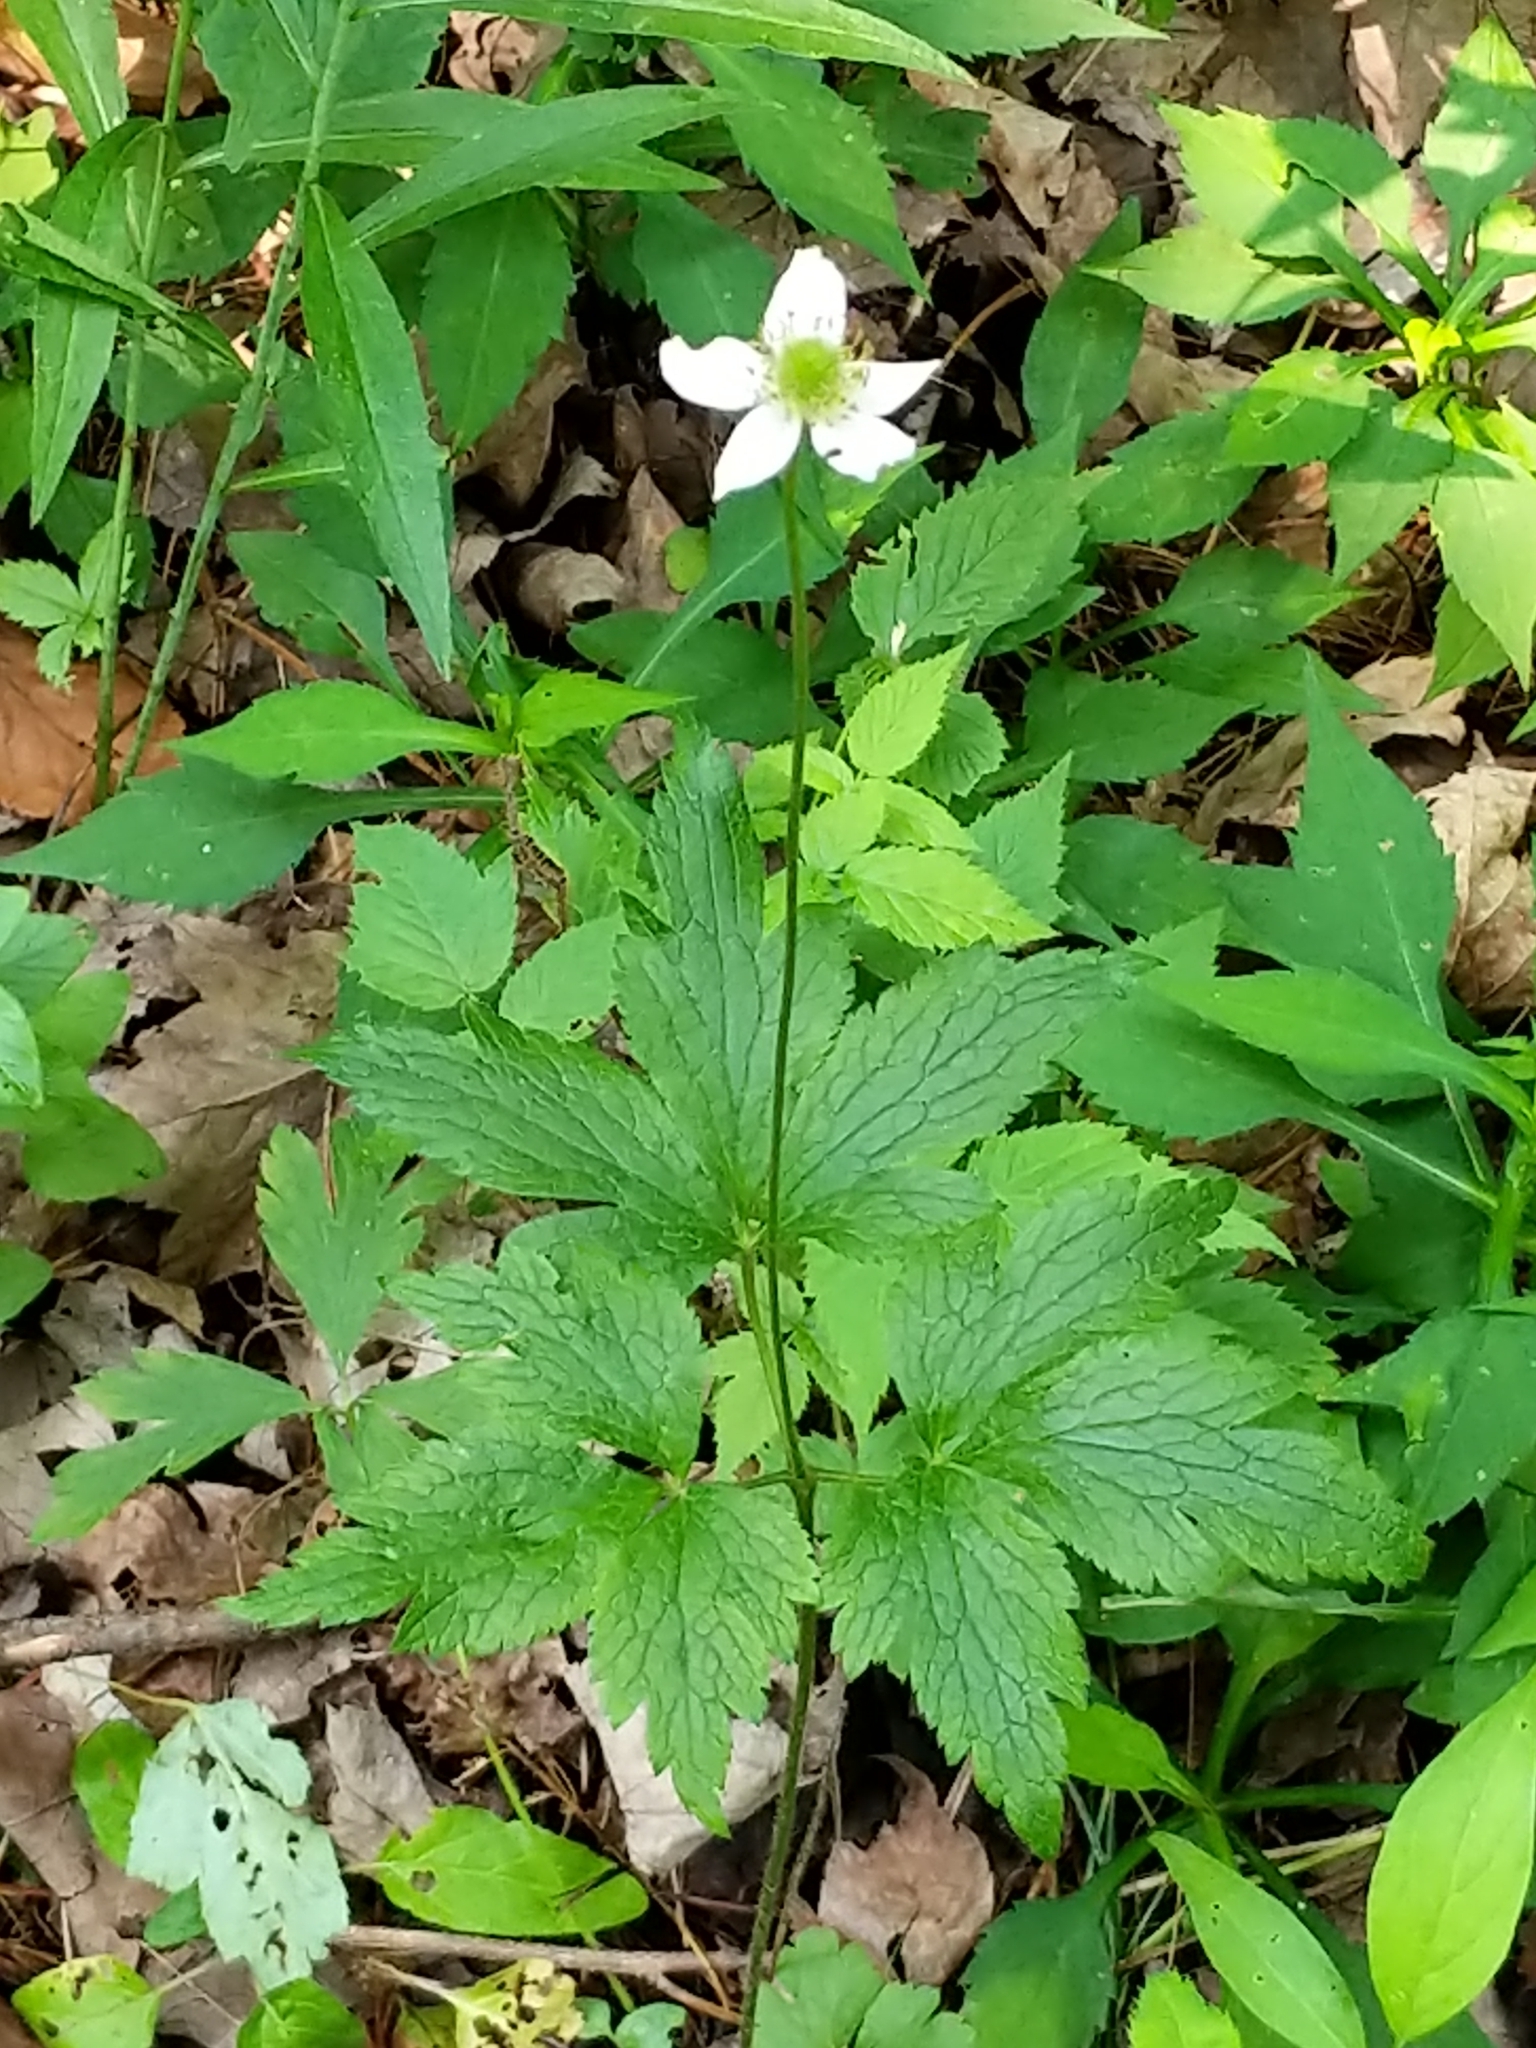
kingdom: Plantae
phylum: Tracheophyta
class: Magnoliopsida
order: Ranunculales
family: Ranunculaceae
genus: Anemone
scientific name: Anemone virginiana
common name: Tall anemone
